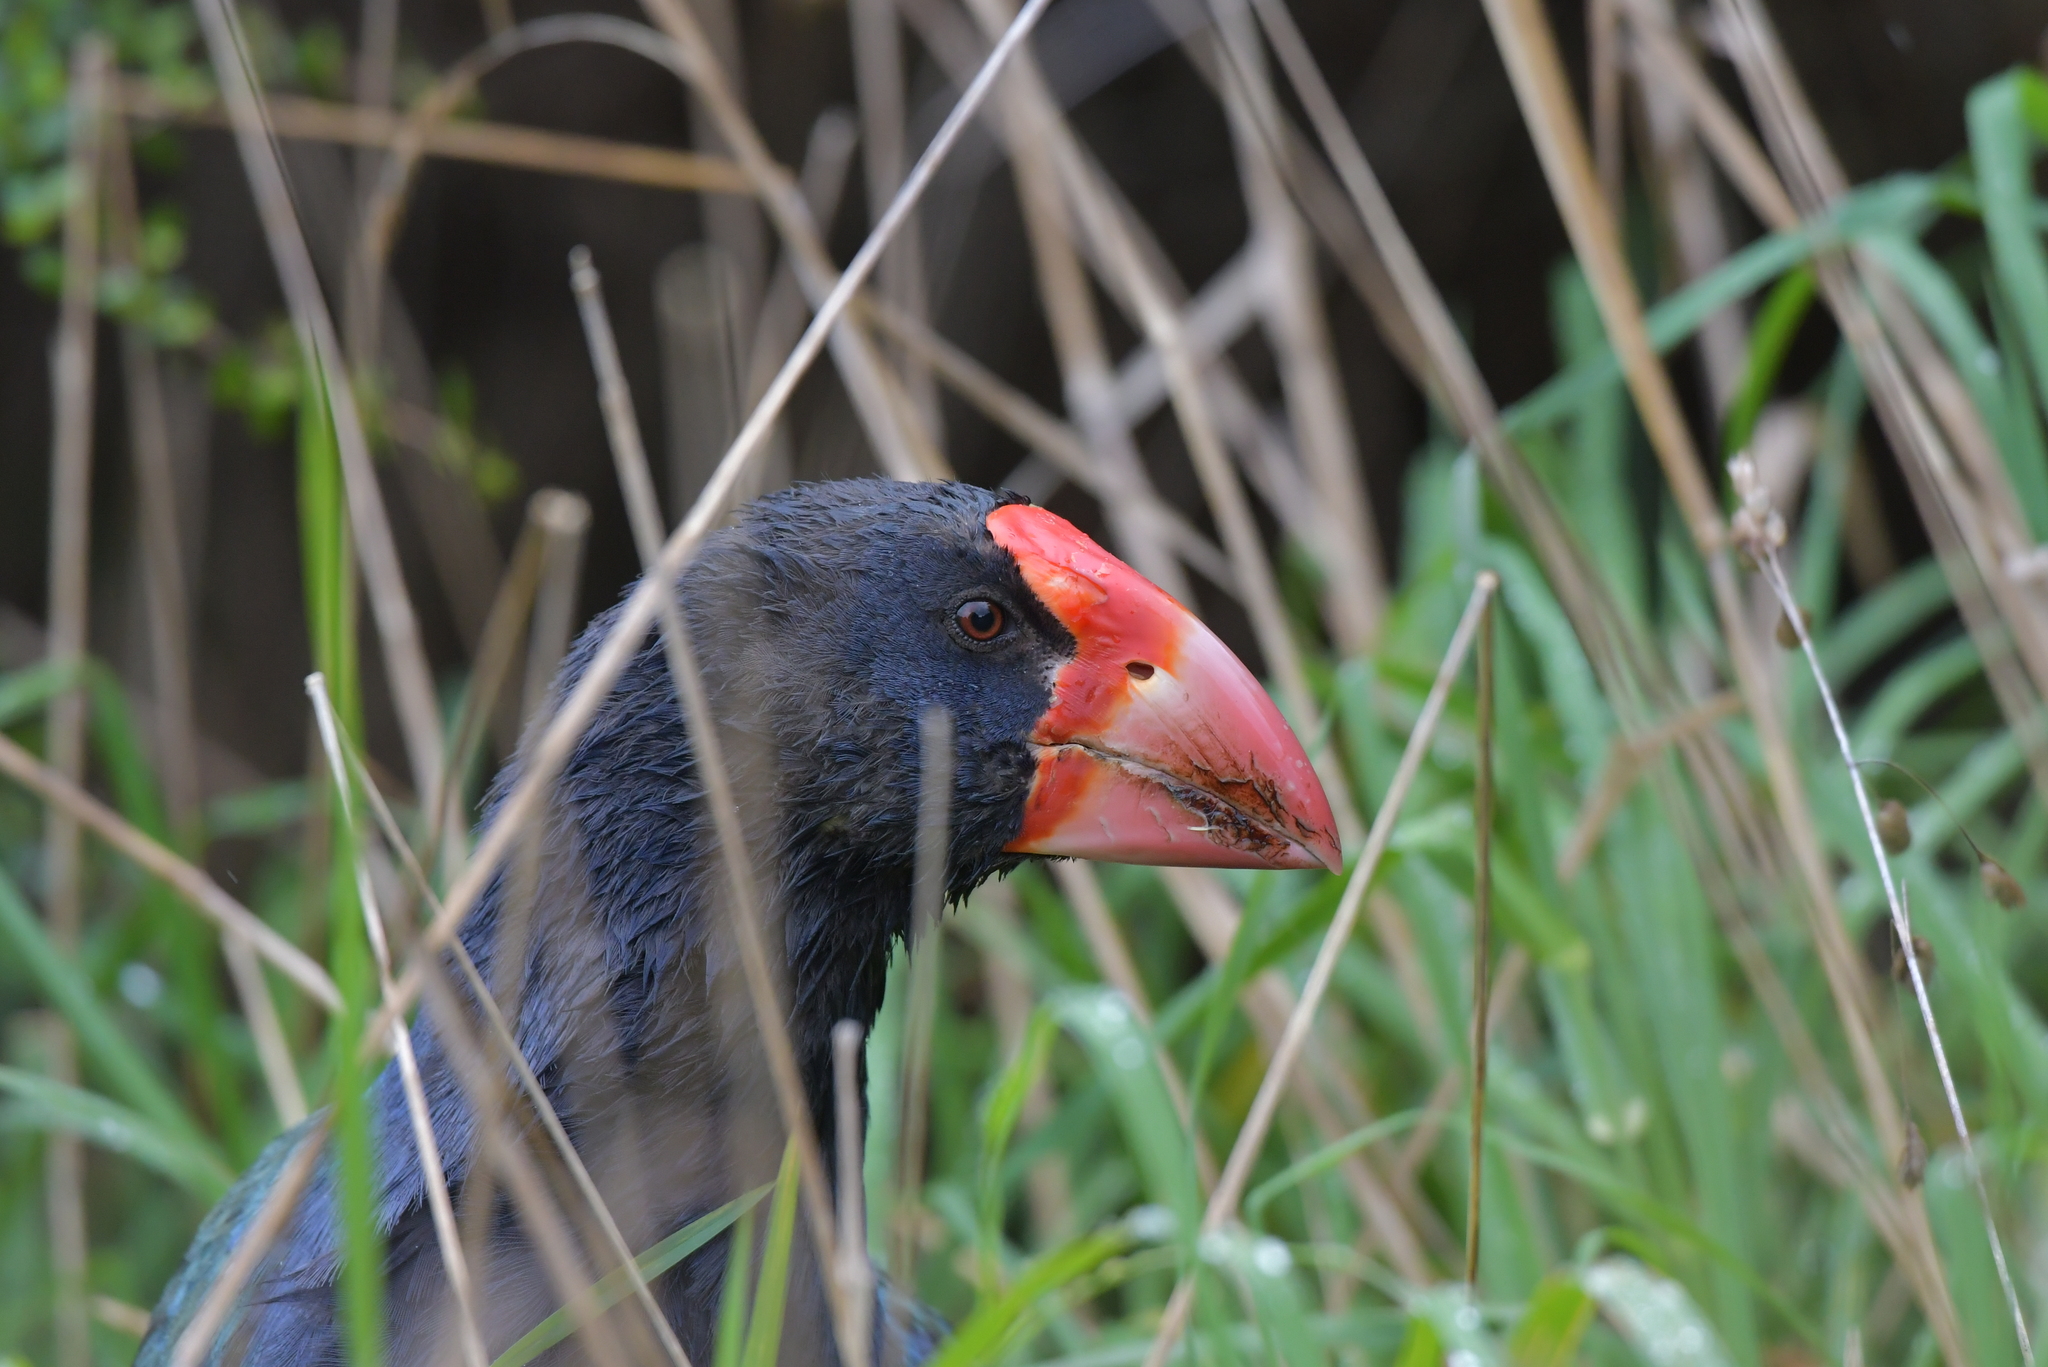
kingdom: Animalia
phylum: Chordata
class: Aves
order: Gruiformes
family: Rallidae
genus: Porphyrio
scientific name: Porphyrio hochstetteri
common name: South island takahe
